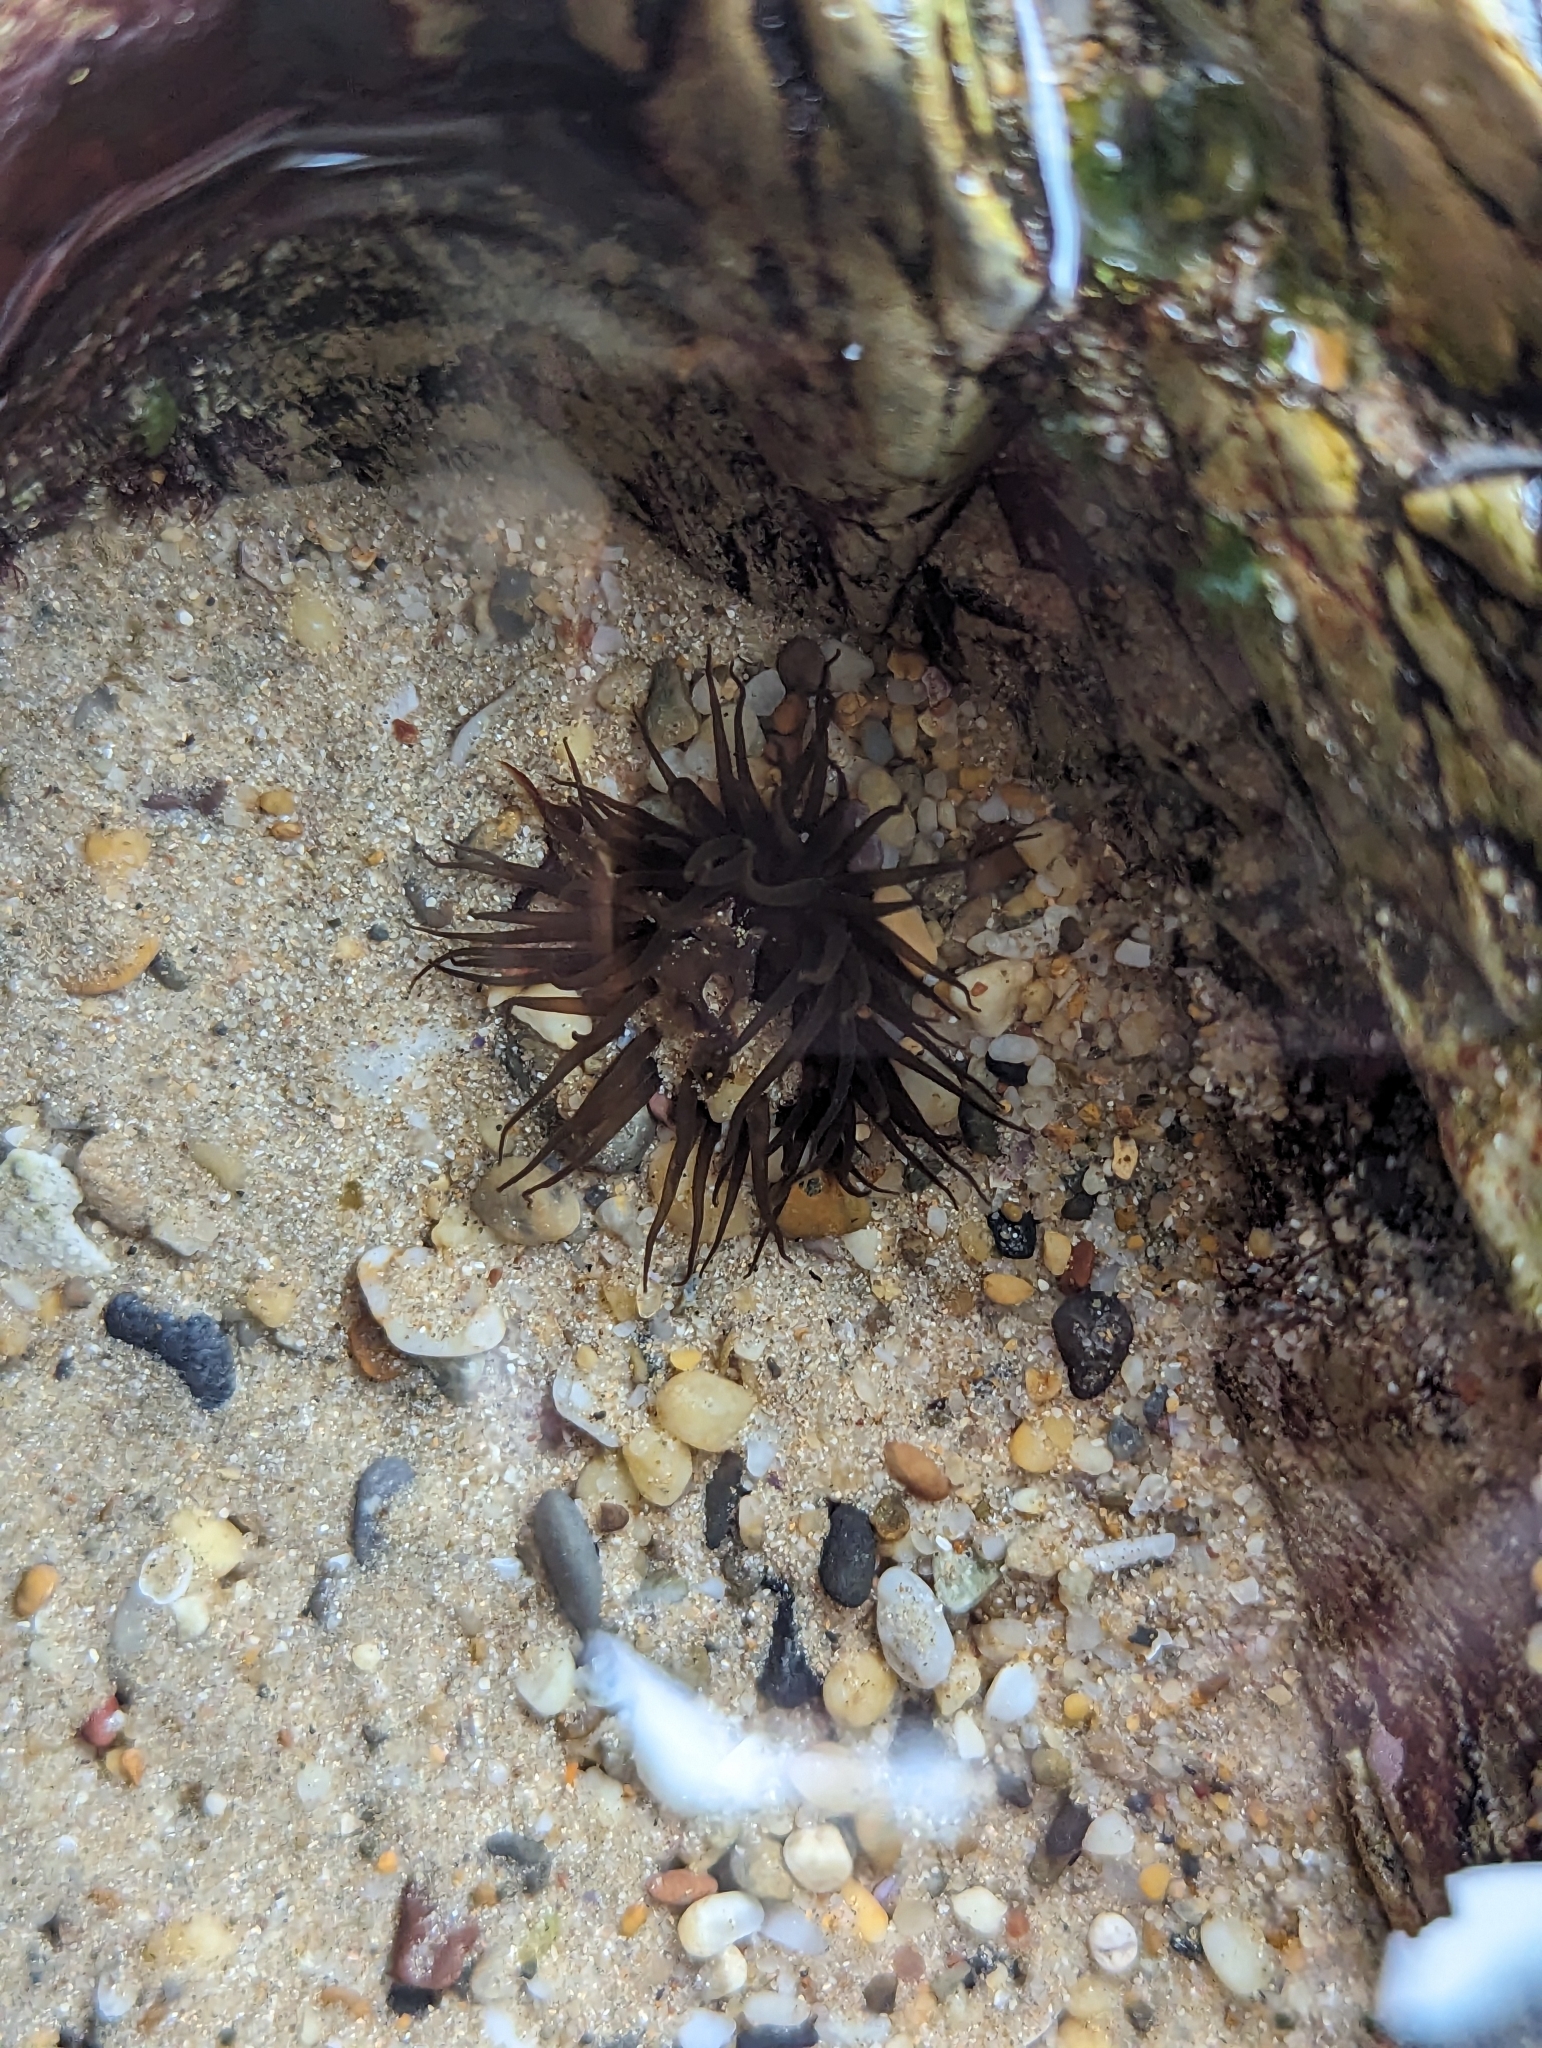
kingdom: Animalia
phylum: Cnidaria
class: Anthozoa
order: Actiniaria
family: Actiniidae
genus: Aulactinia
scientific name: Aulactinia veratra
